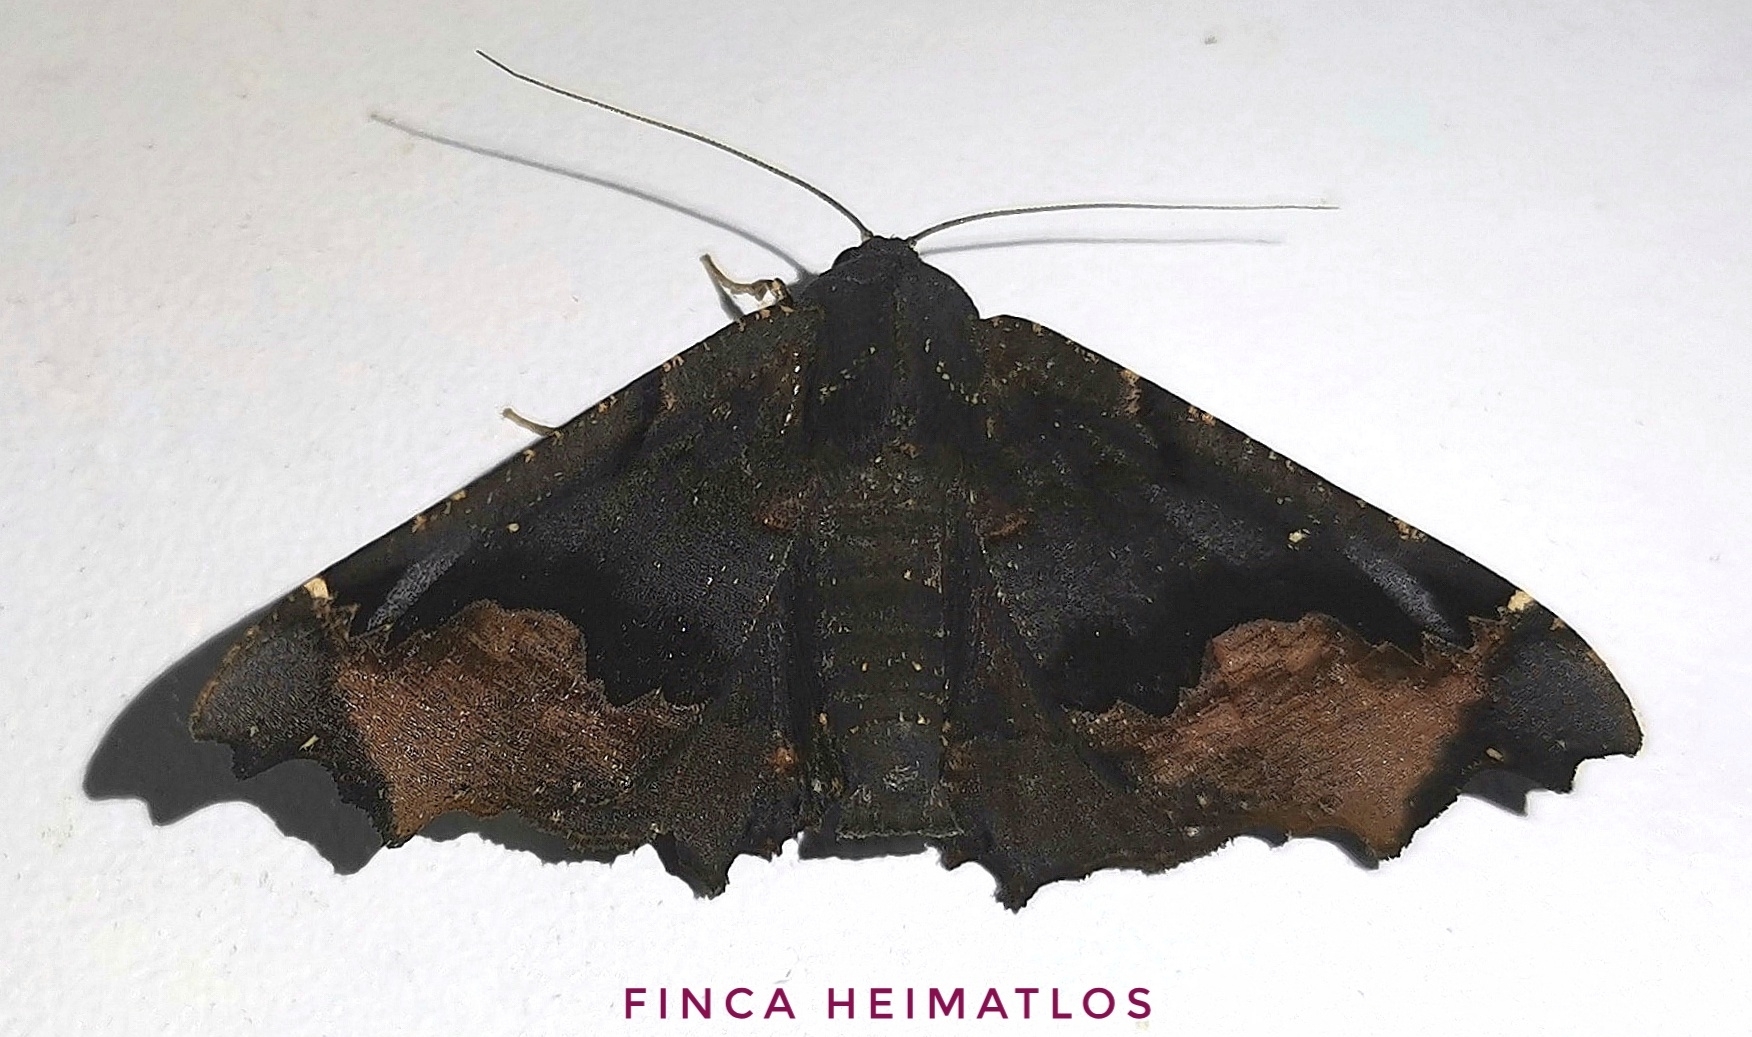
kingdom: Animalia
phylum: Arthropoda
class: Insecta
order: Lepidoptera
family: Geometridae
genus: Pero
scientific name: Pero nigra
